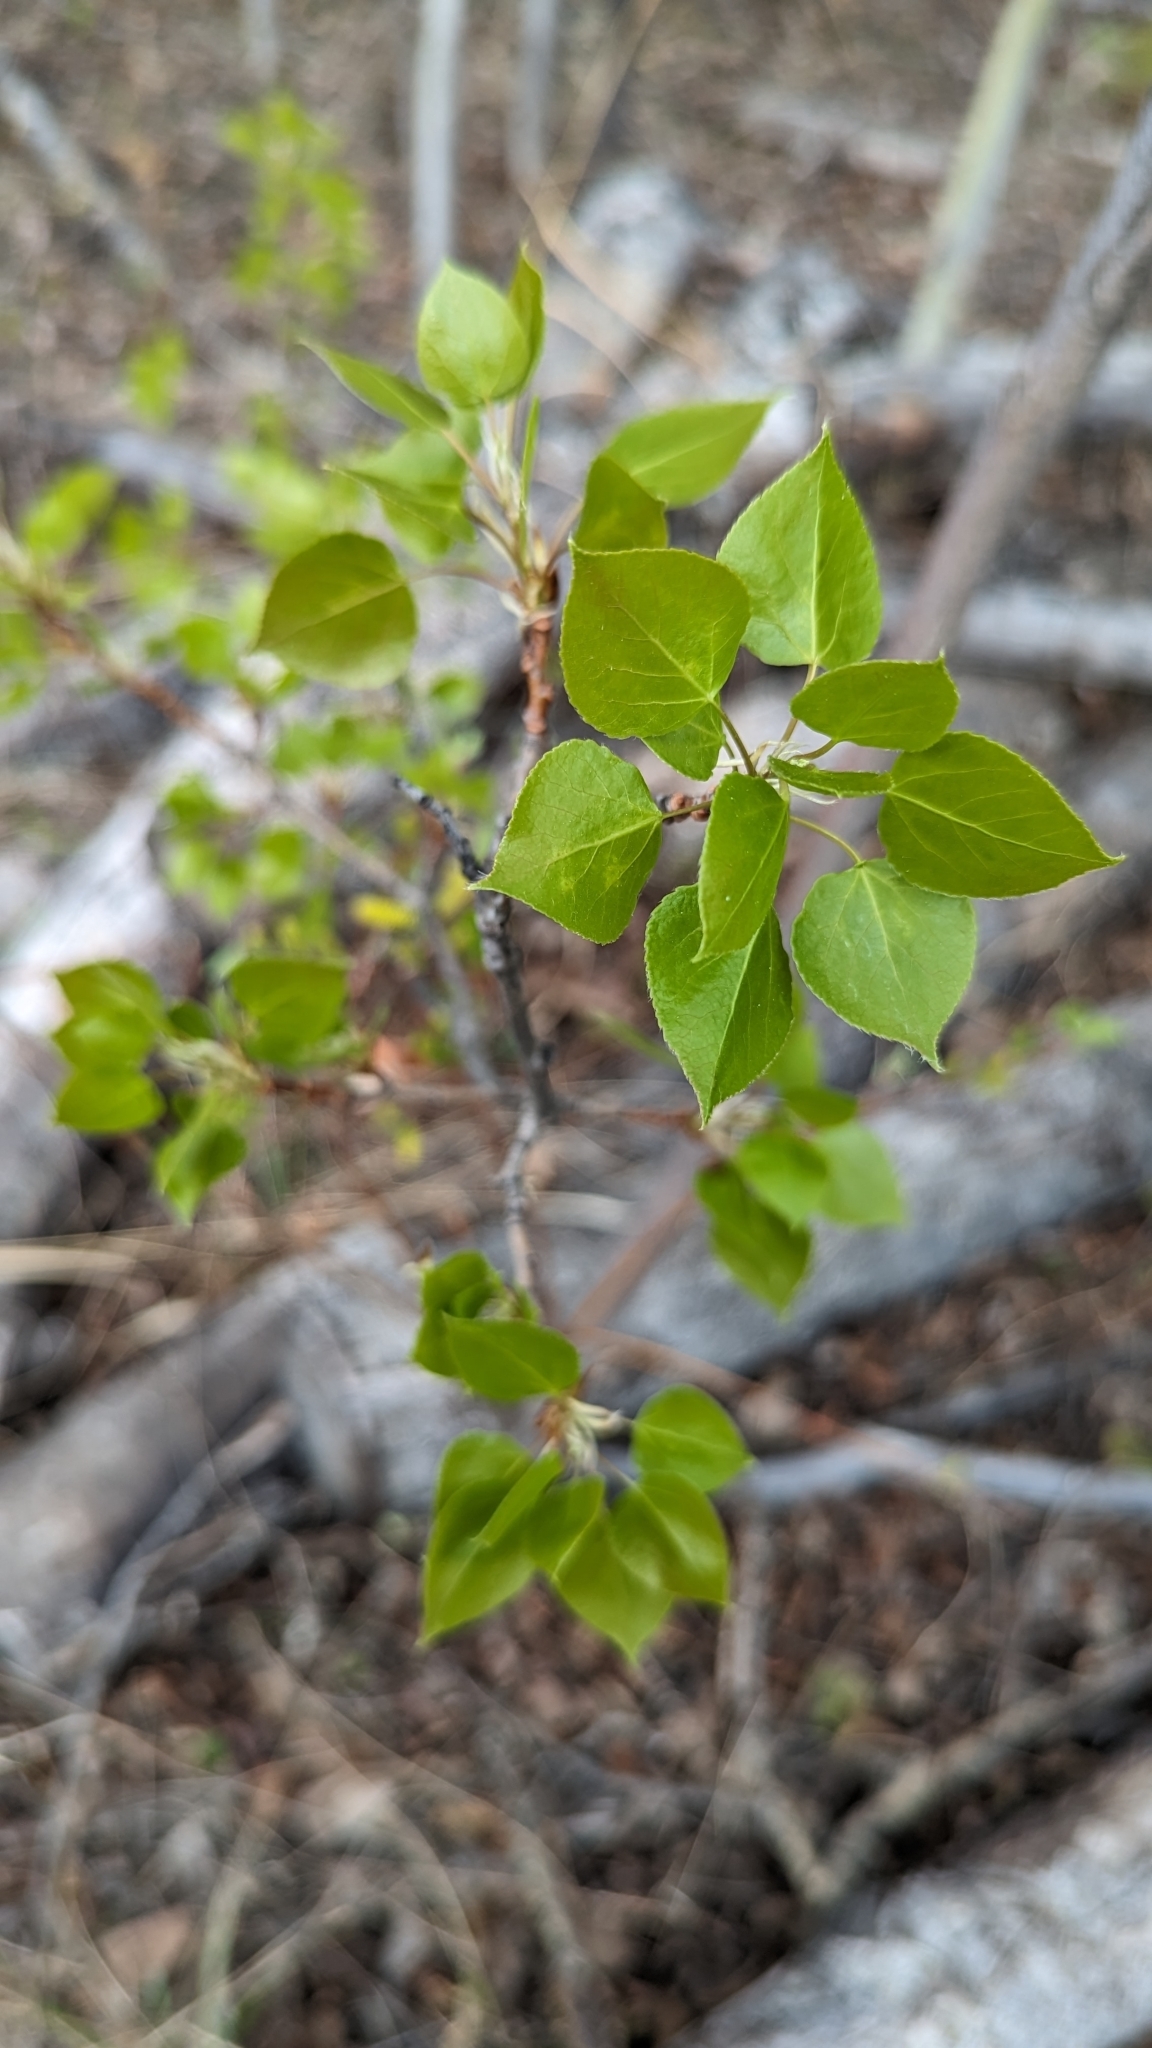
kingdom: Plantae
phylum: Tracheophyta
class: Magnoliopsida
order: Malpighiales
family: Salicaceae
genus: Populus
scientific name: Populus tremuloides
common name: Quaking aspen
